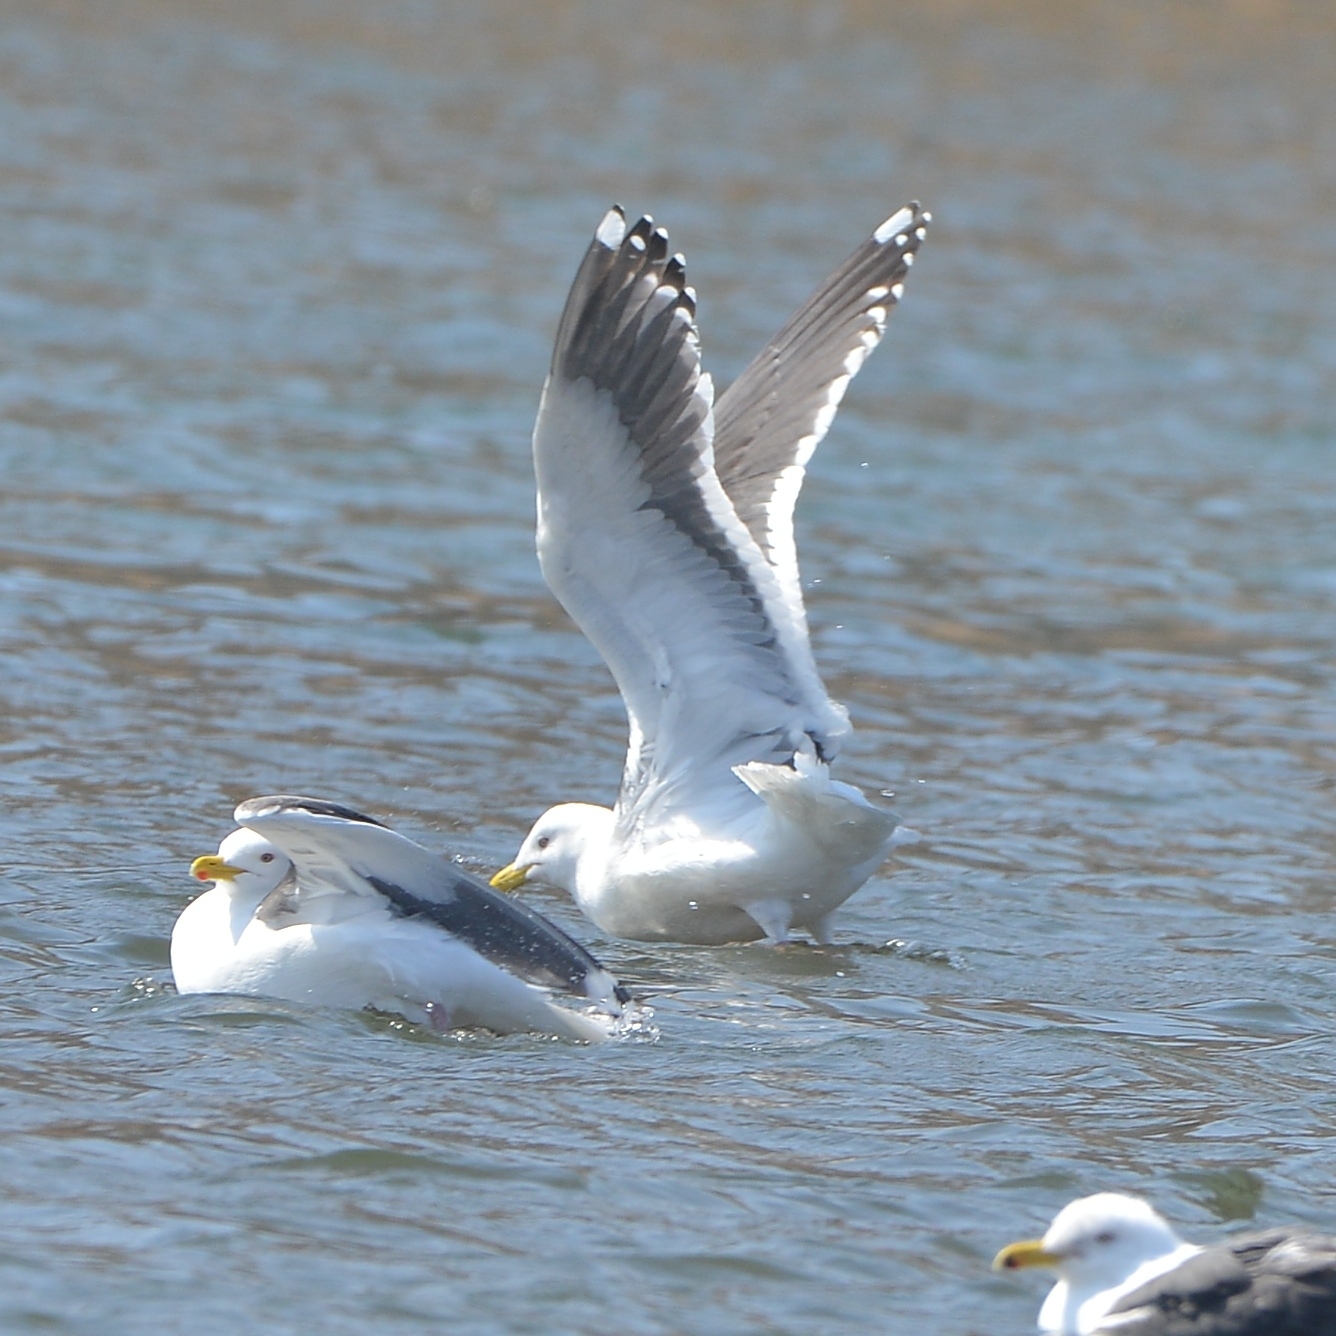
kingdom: Animalia
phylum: Chordata
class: Aves
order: Charadriiformes
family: Laridae
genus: Larus
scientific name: Larus schistisagus
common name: Slaty-backed gull
